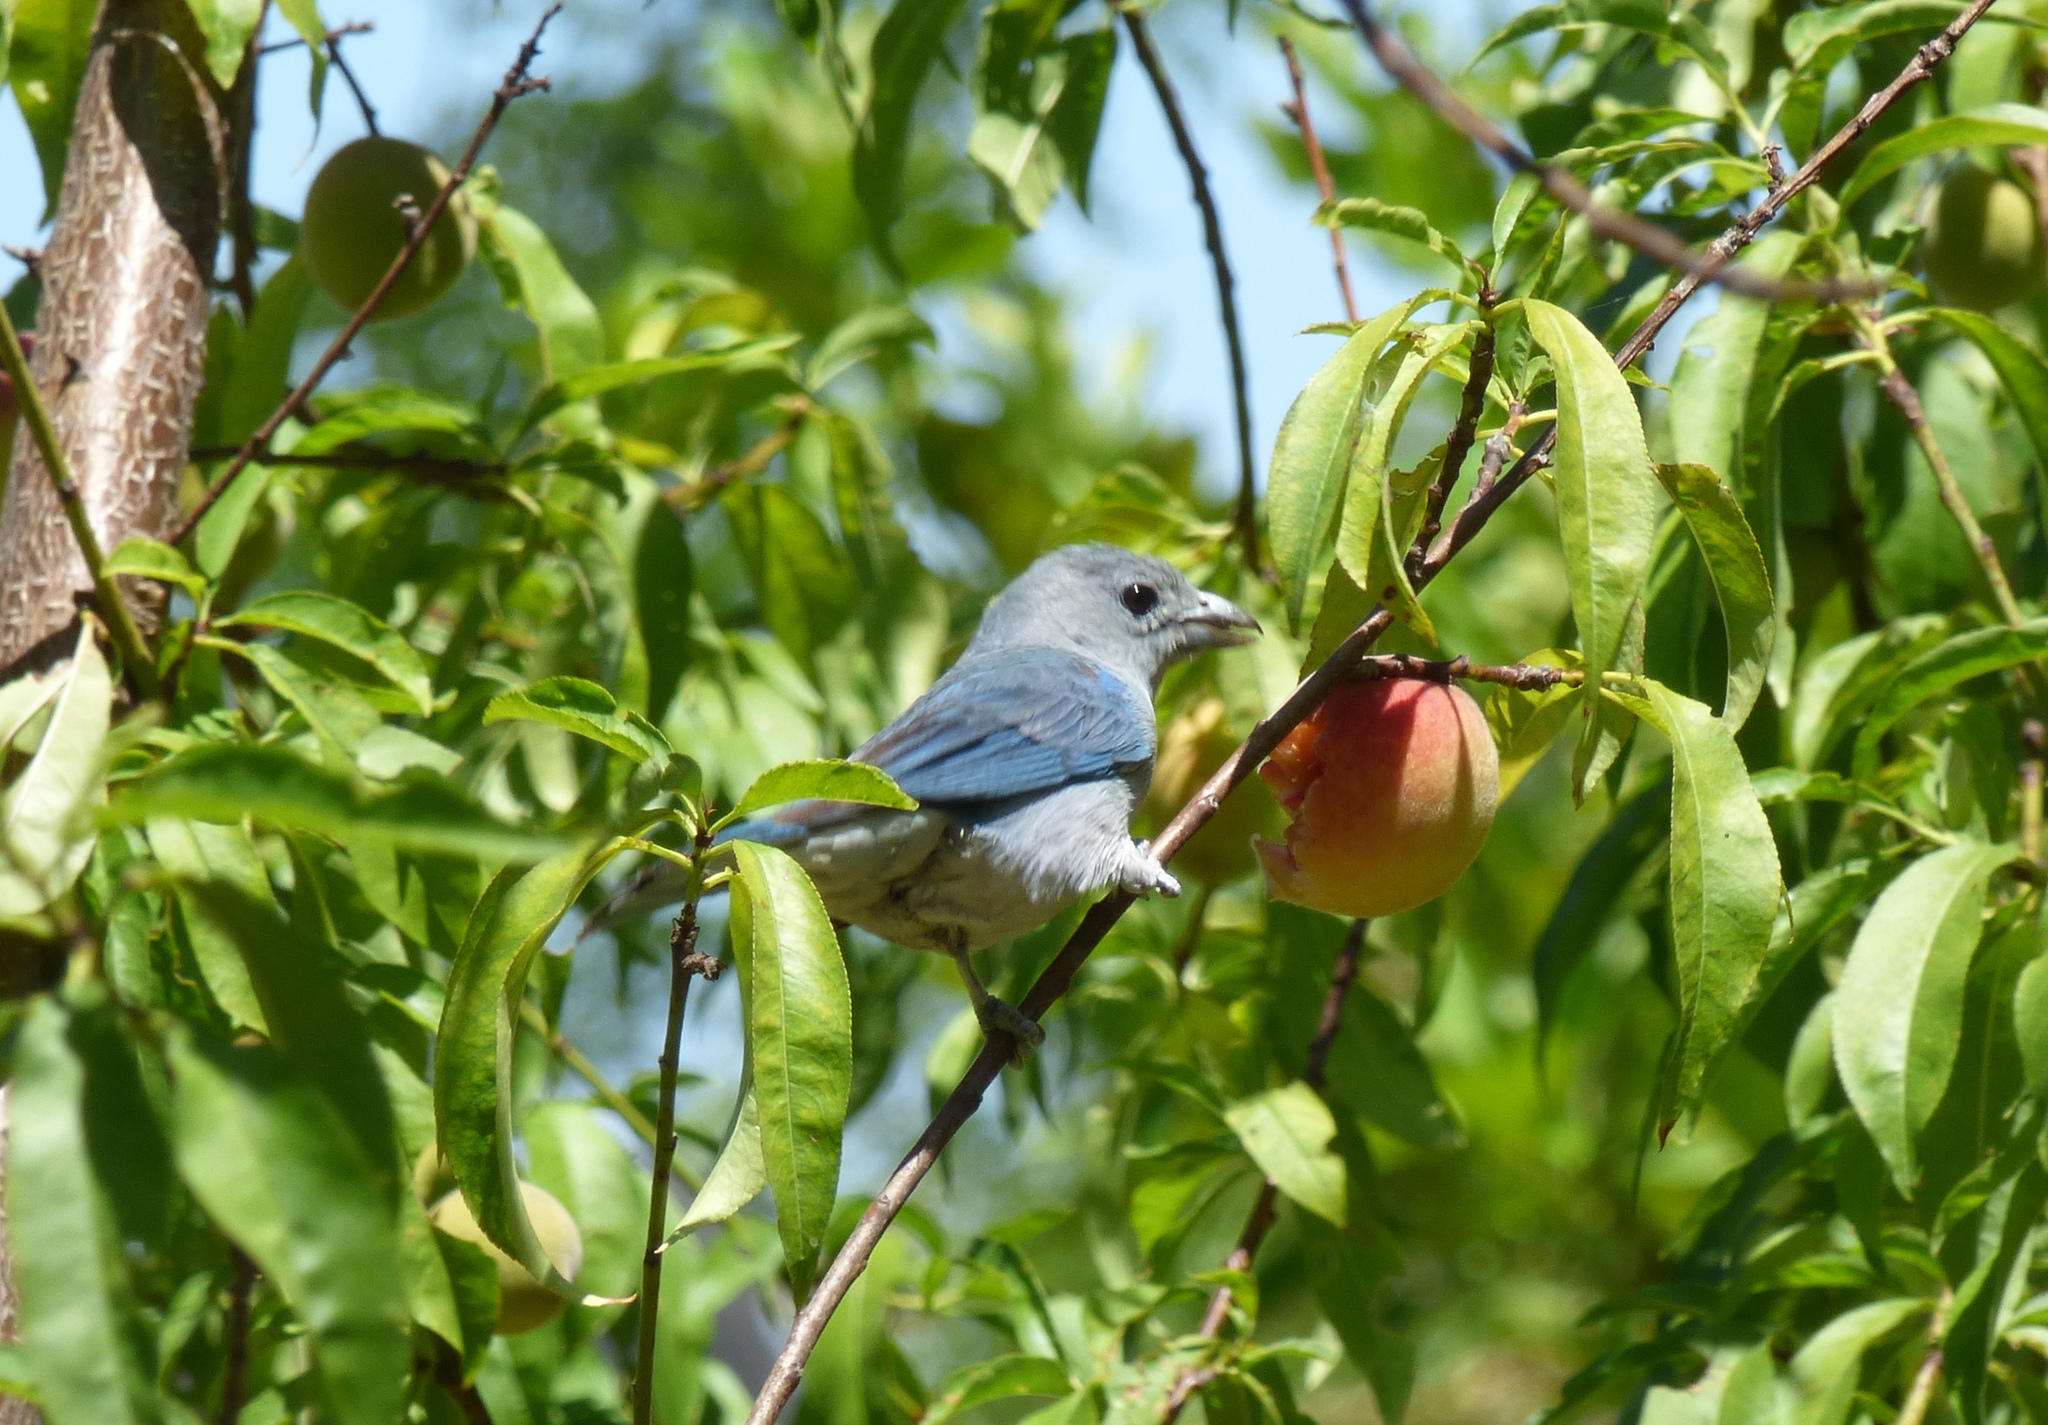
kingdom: Animalia
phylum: Chordata
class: Aves
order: Passeriformes
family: Thraupidae
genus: Thraupis
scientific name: Thraupis sayaca
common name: Sayaca tanager
